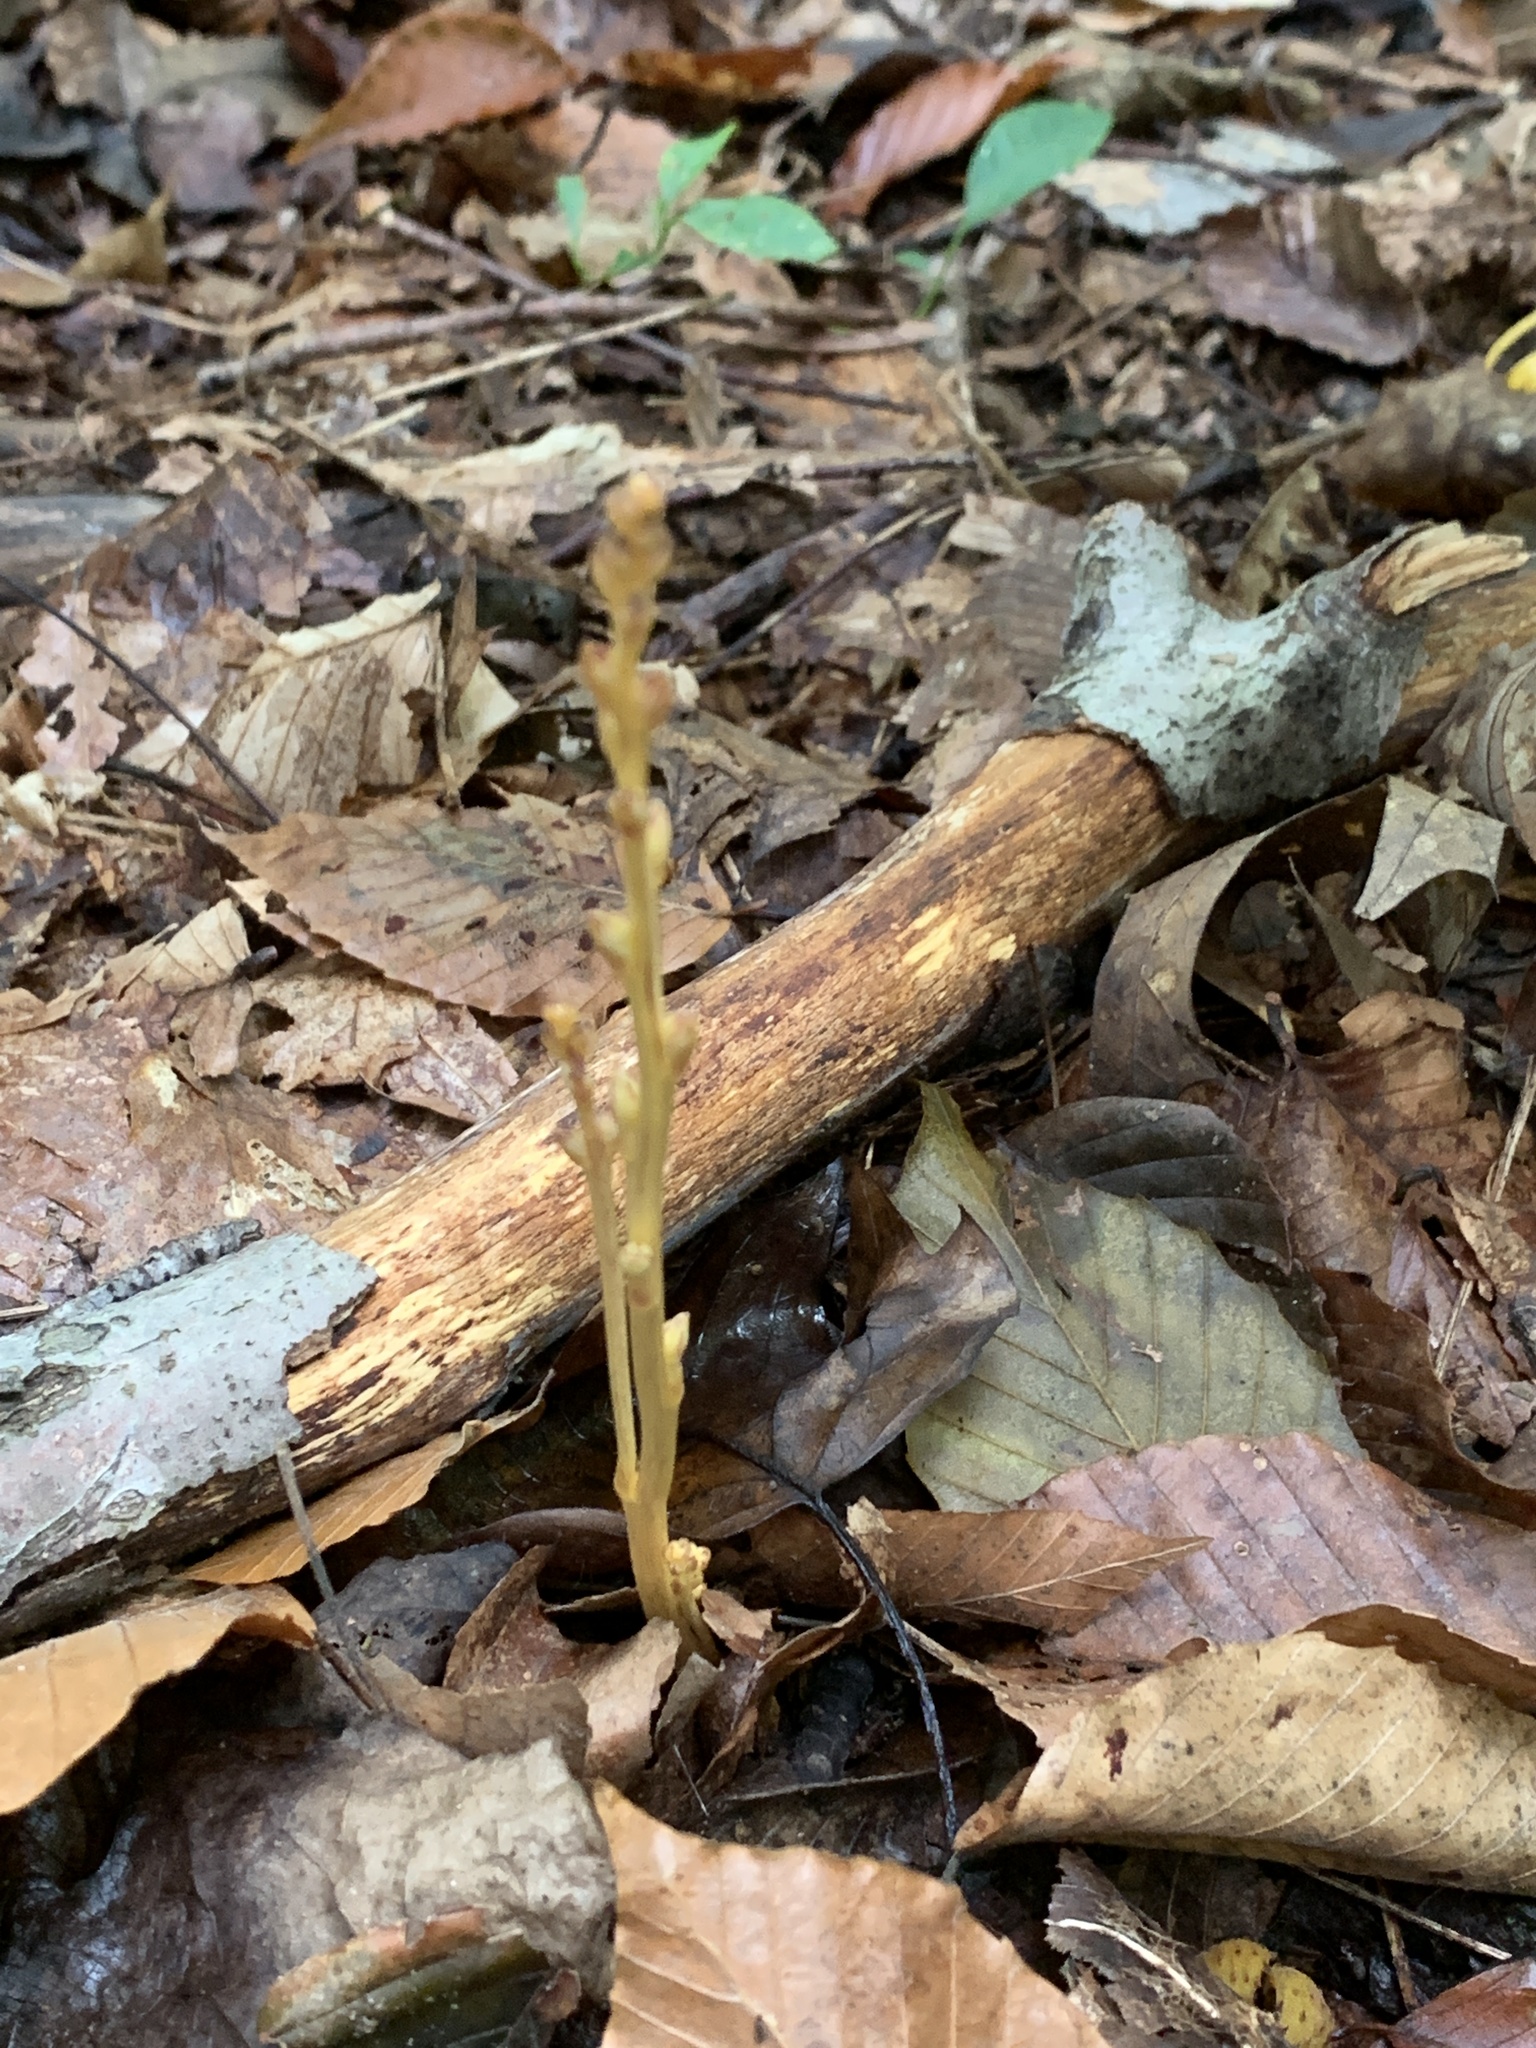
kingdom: Plantae
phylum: Tracheophyta
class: Magnoliopsida
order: Lamiales
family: Orobanchaceae
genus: Epifagus
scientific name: Epifagus virginiana
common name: Beechdrops
